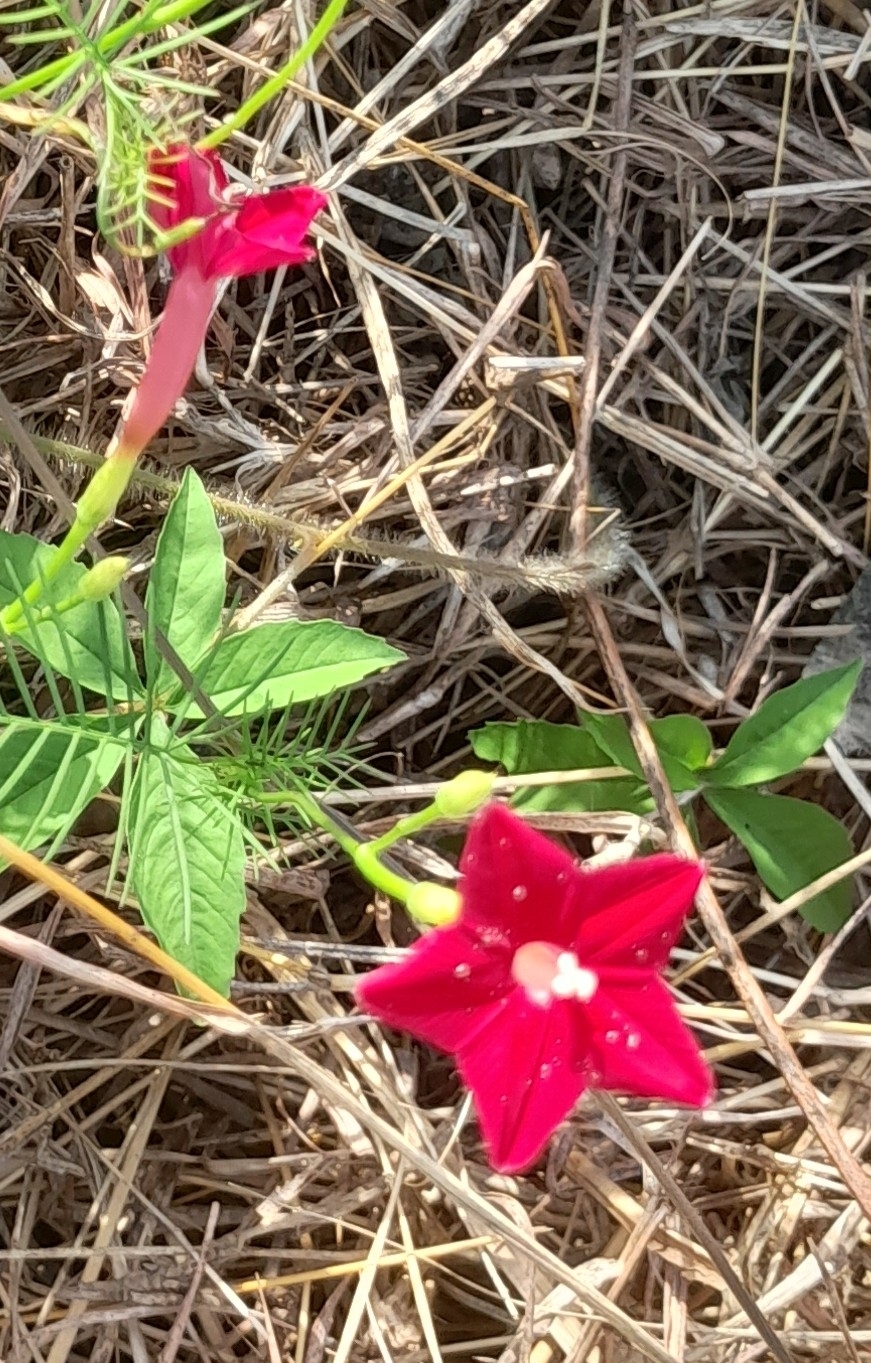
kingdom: Plantae
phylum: Tracheophyta
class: Magnoliopsida
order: Solanales
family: Convolvulaceae
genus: Ipomoea
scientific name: Ipomoea quamoclit
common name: Cypress vine
